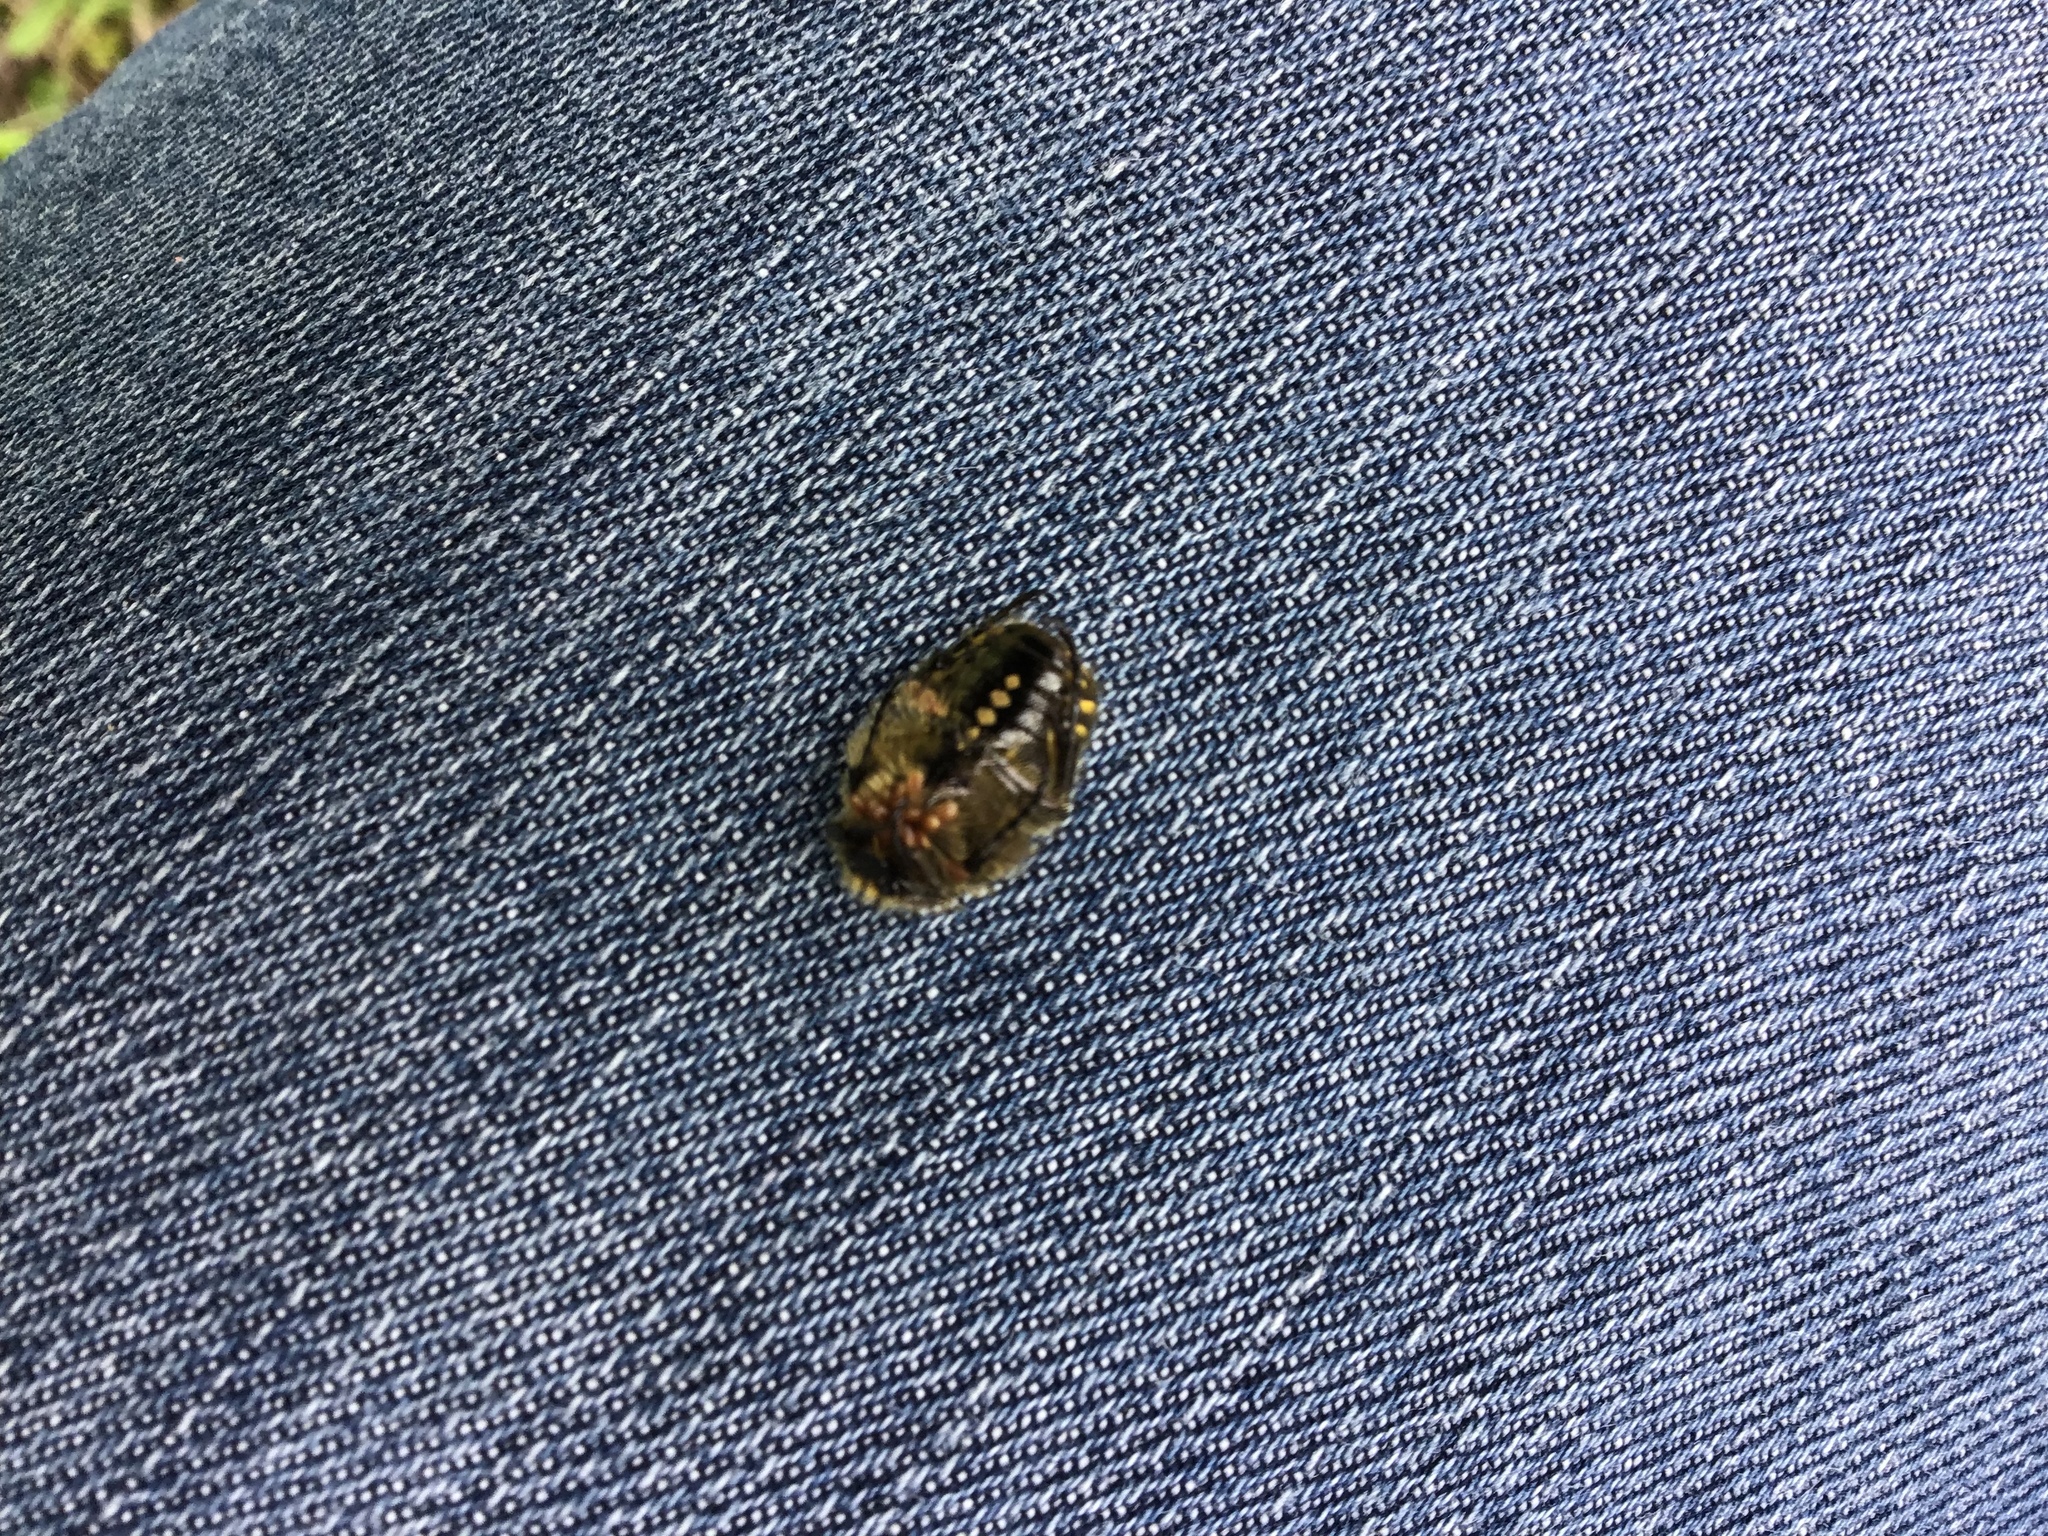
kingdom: Animalia
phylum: Arthropoda
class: Insecta
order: Coleoptera
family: Scarabaeidae
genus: Oxythyrea
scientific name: Oxythyrea funesta
